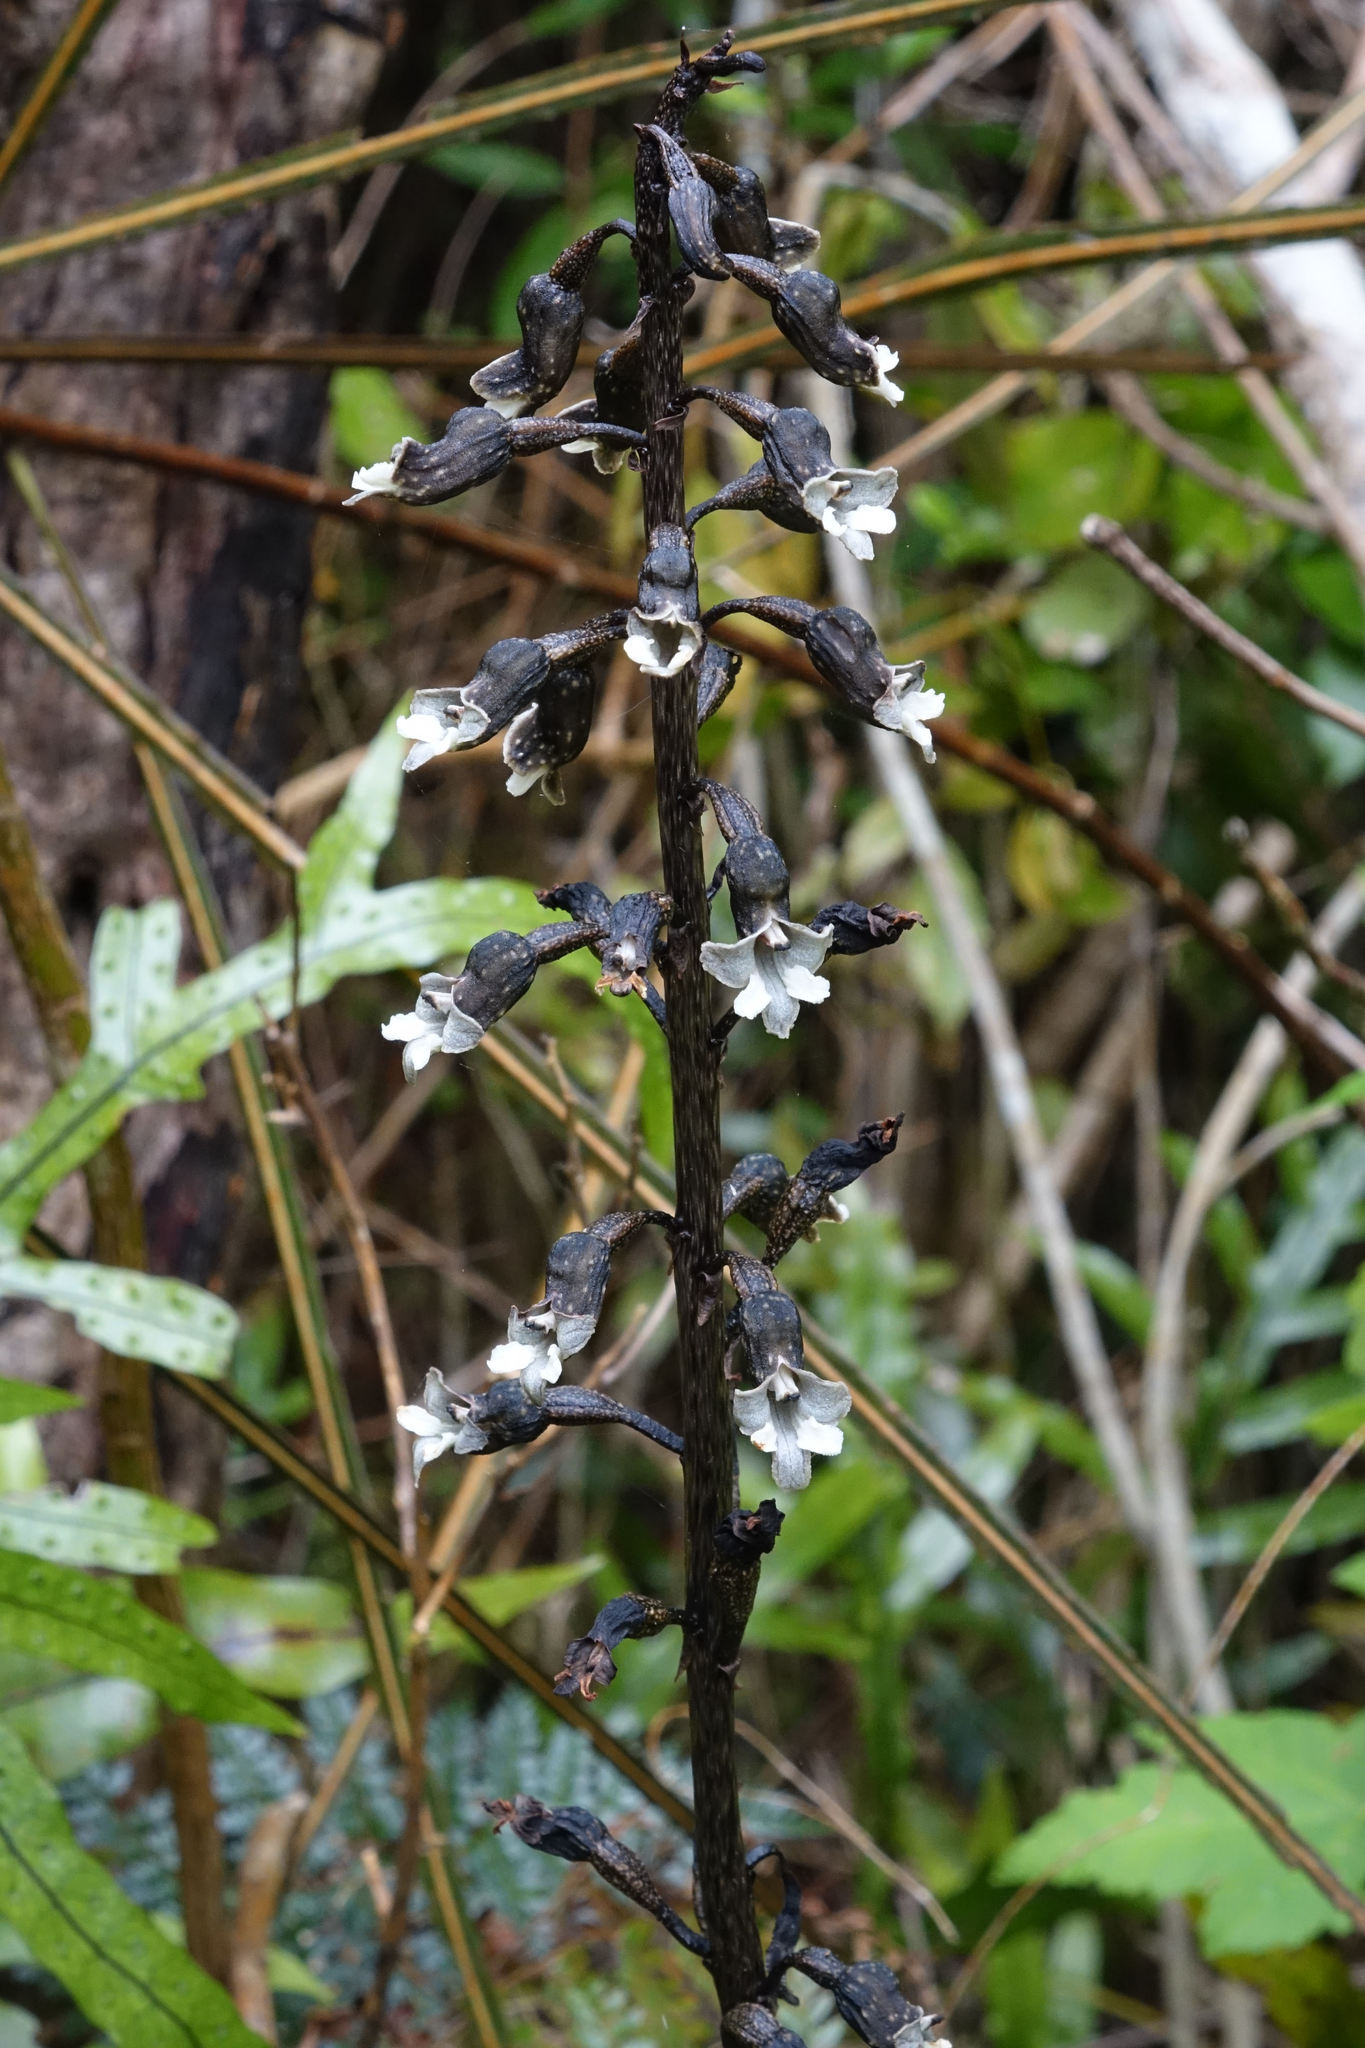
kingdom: Plantae
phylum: Tracheophyta
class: Liliopsida
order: Asparagales
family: Orchidaceae
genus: Gastrodia
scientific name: Gastrodia cunninghamii
